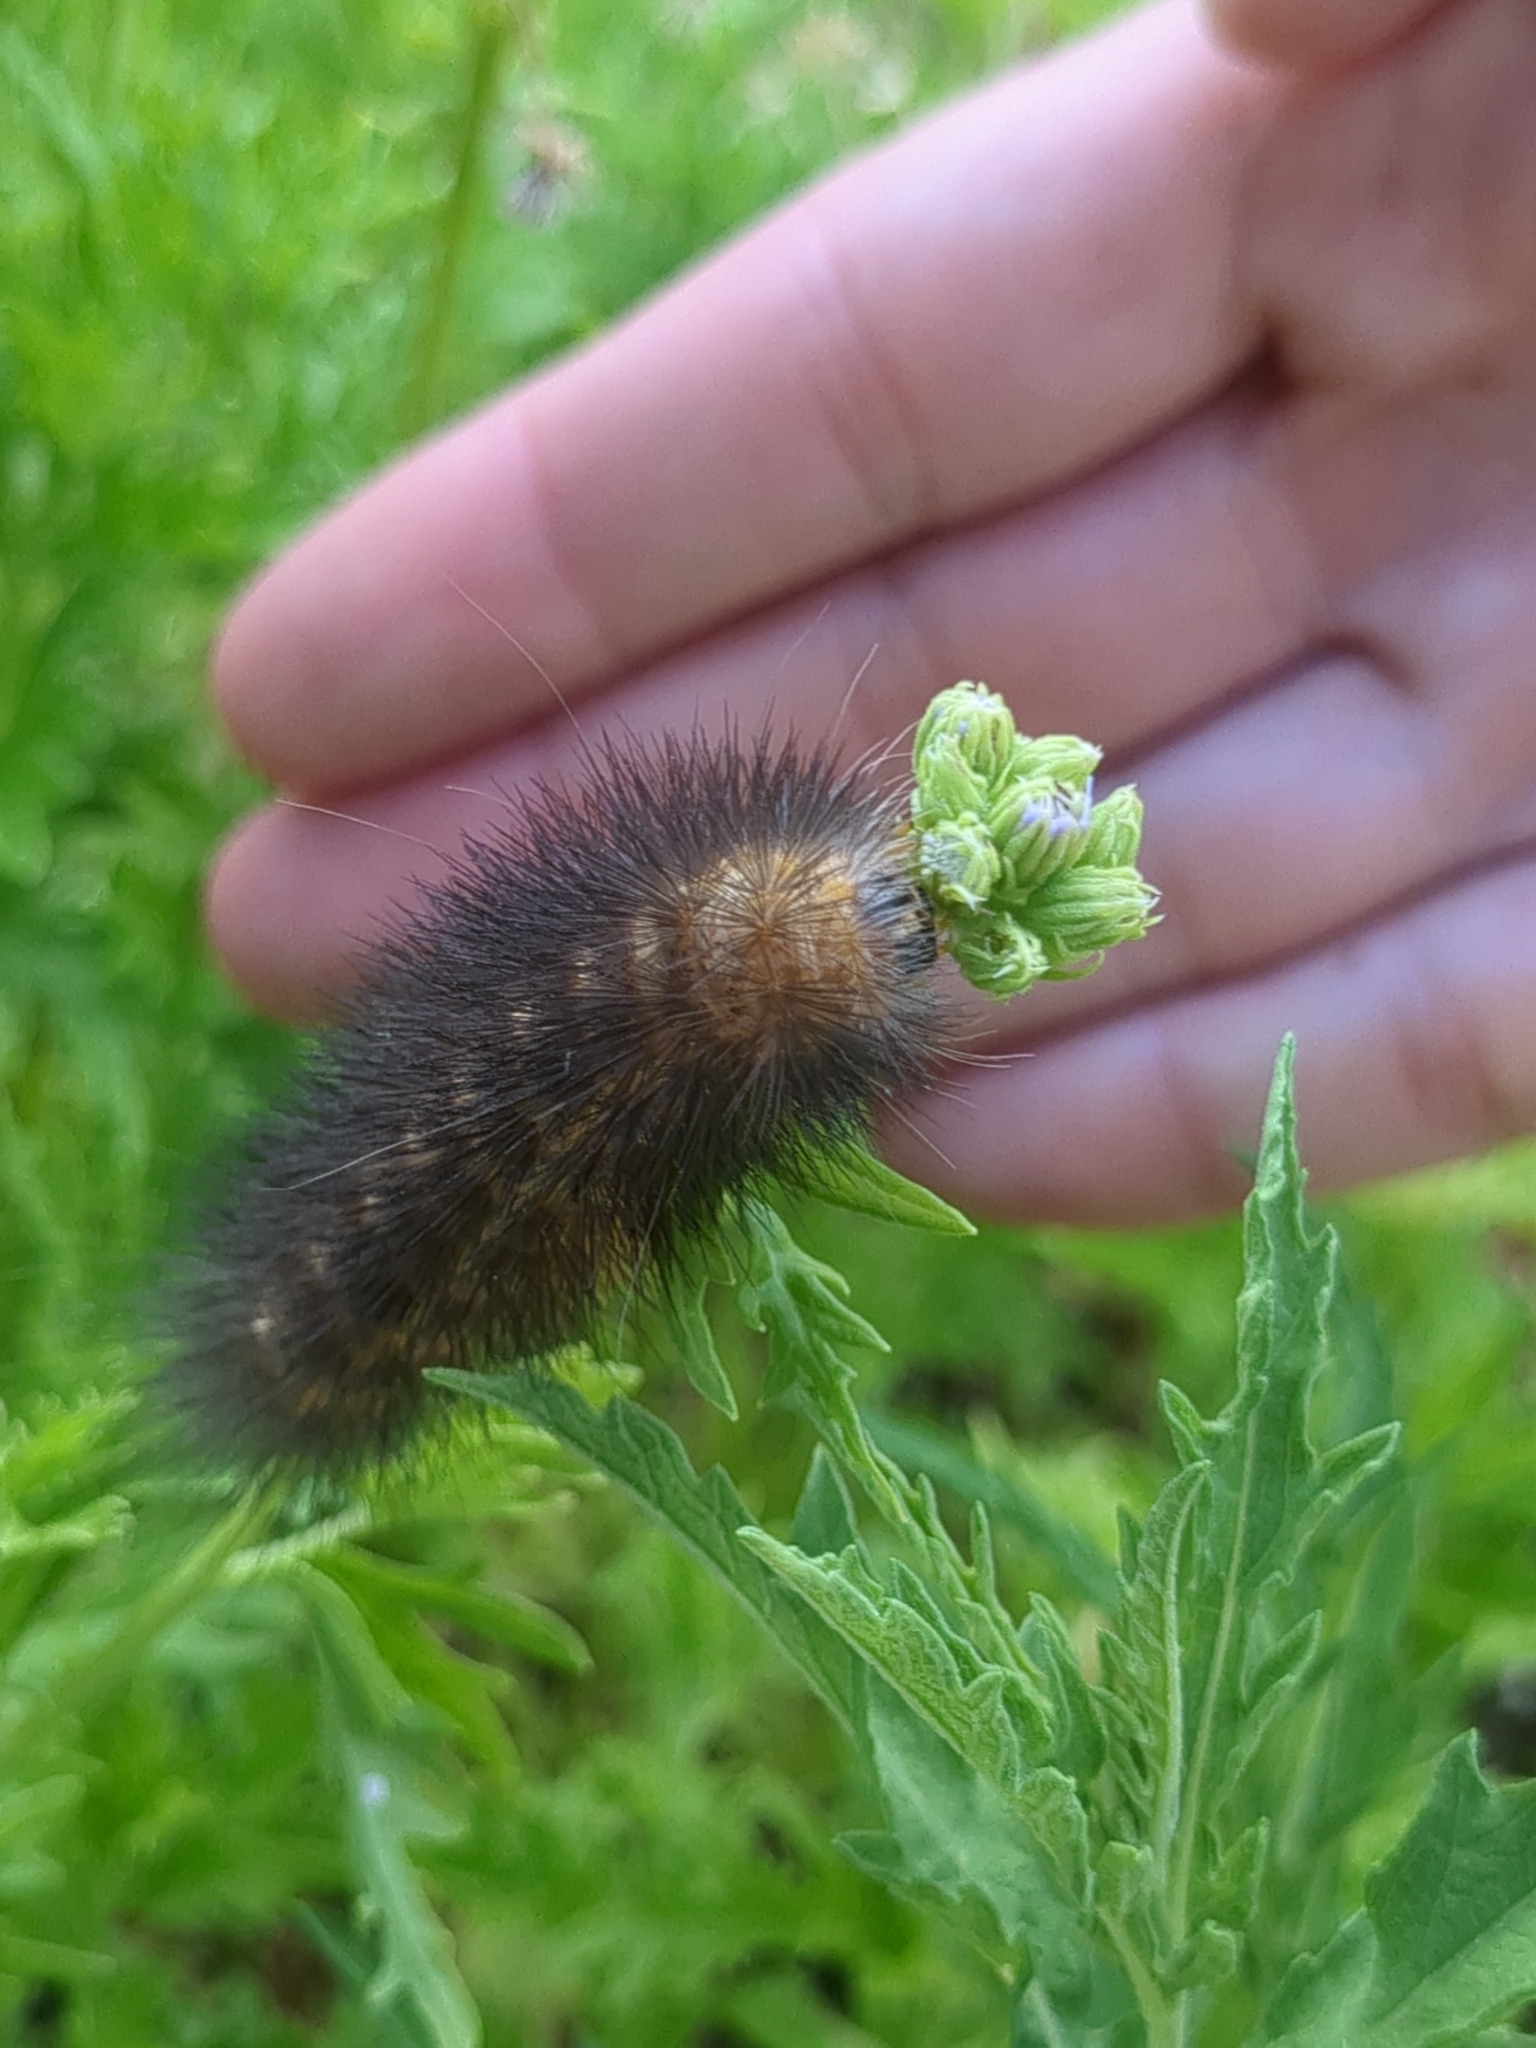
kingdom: Animalia
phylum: Arthropoda
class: Insecta
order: Lepidoptera
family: Erebidae
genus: Estigmene
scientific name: Estigmene acrea
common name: Salt marsh moth
